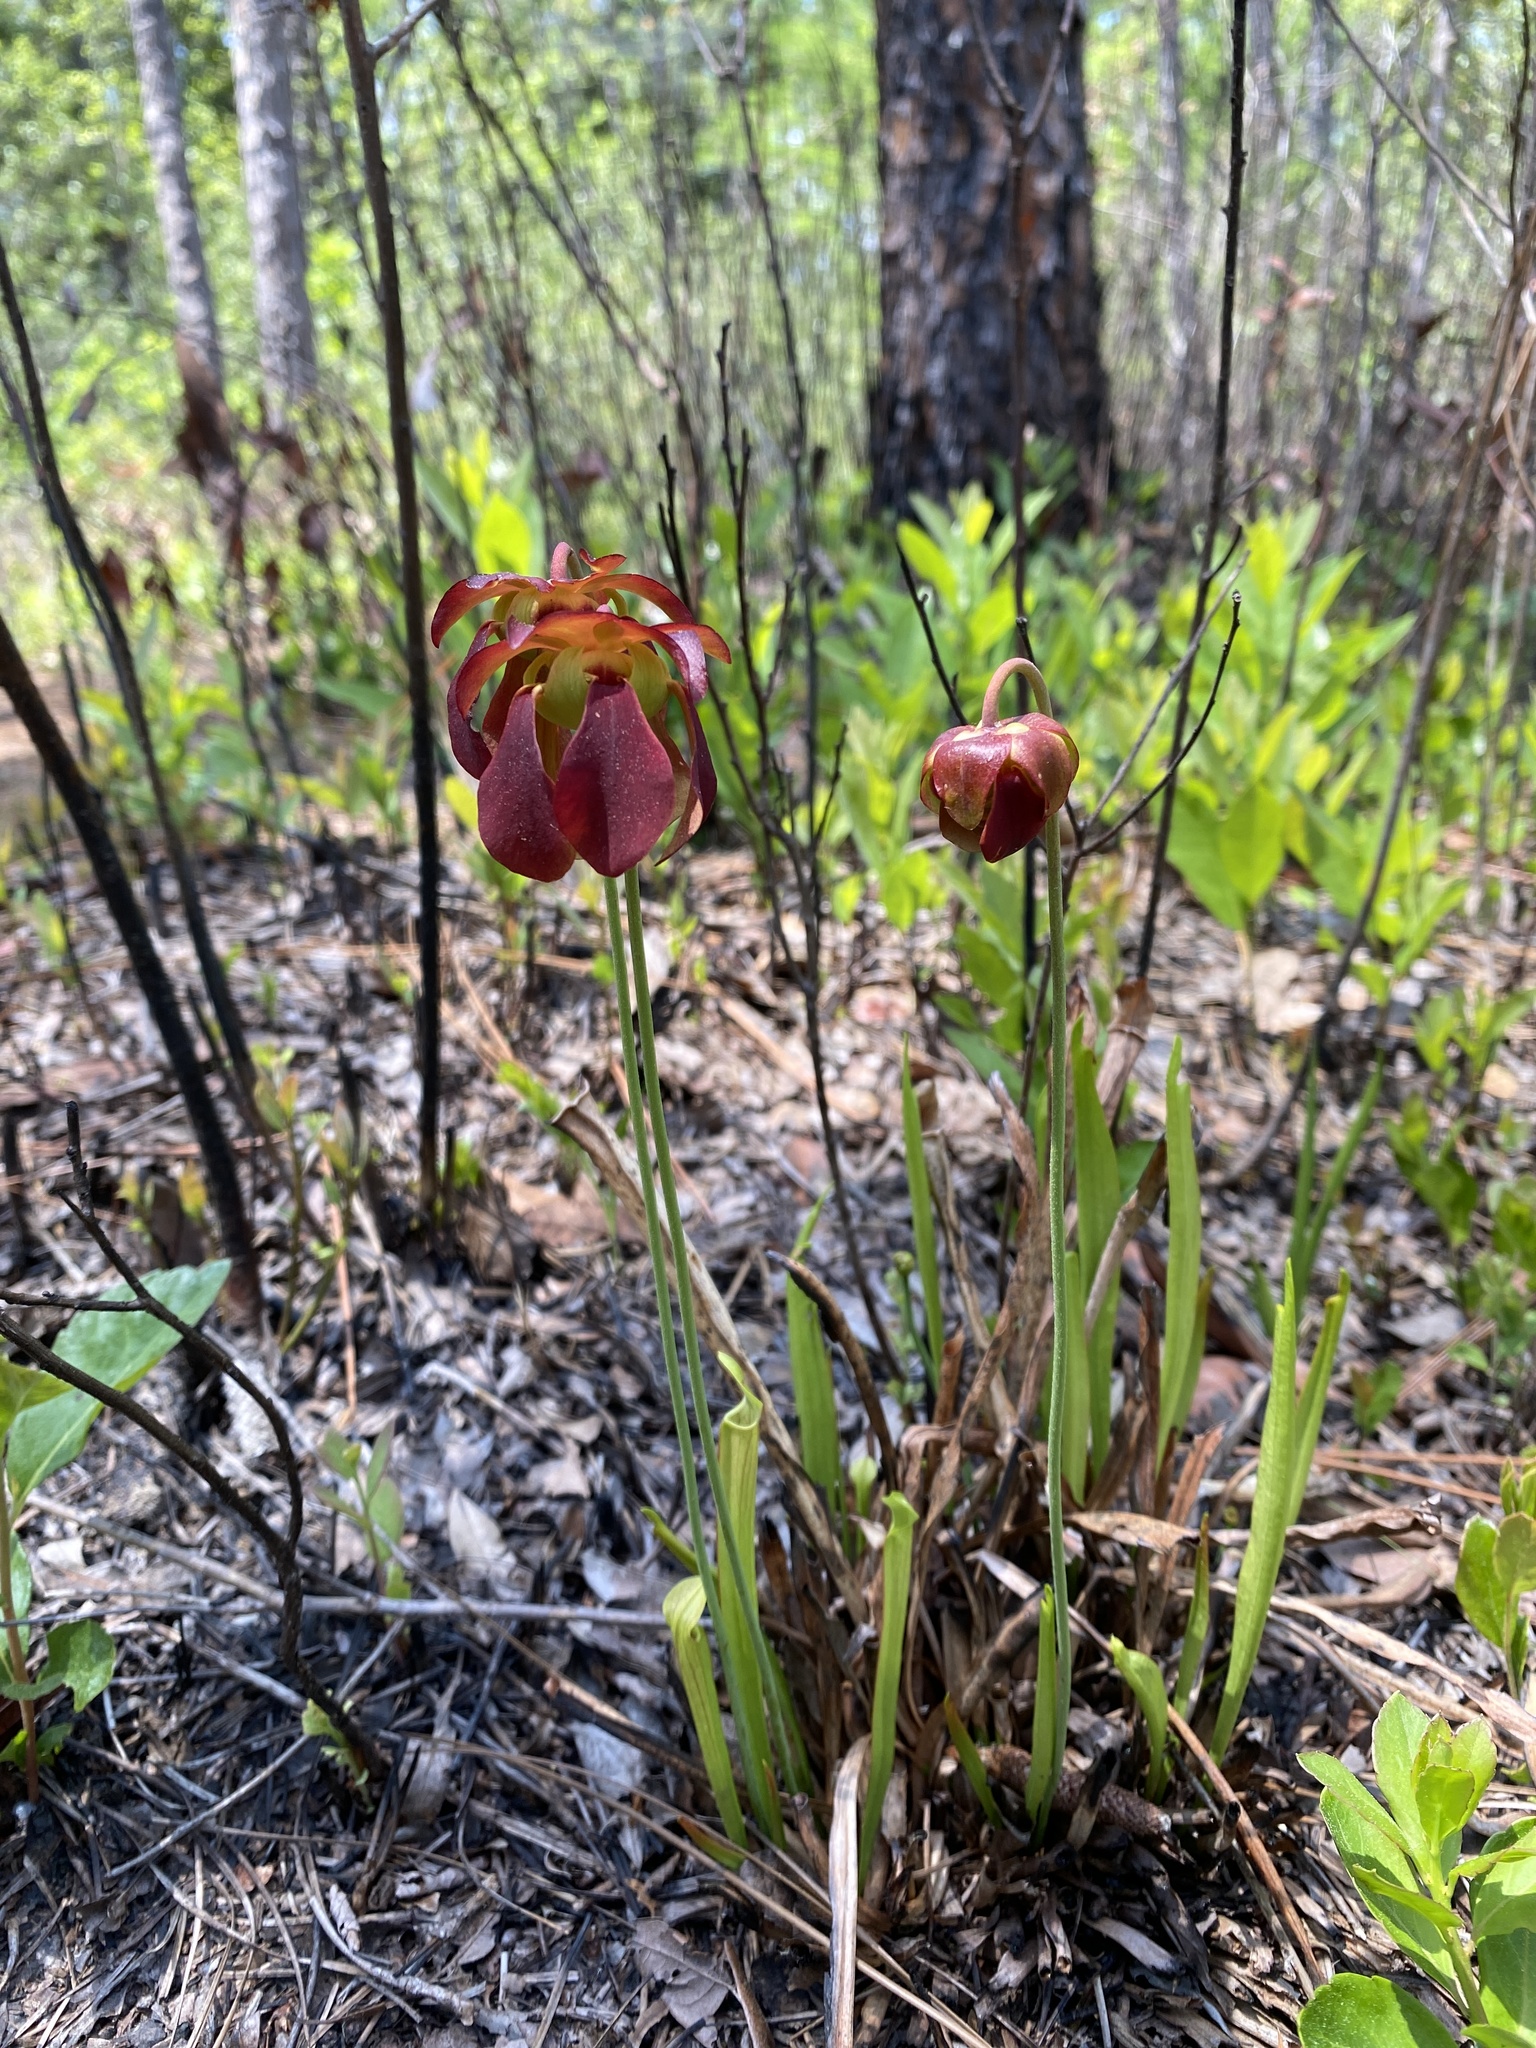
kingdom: Plantae
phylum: Tracheophyta
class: Magnoliopsida
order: Ericales
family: Sarraceniaceae
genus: Sarracenia
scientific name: Sarracenia rubra
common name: Sweet pitcherplant
